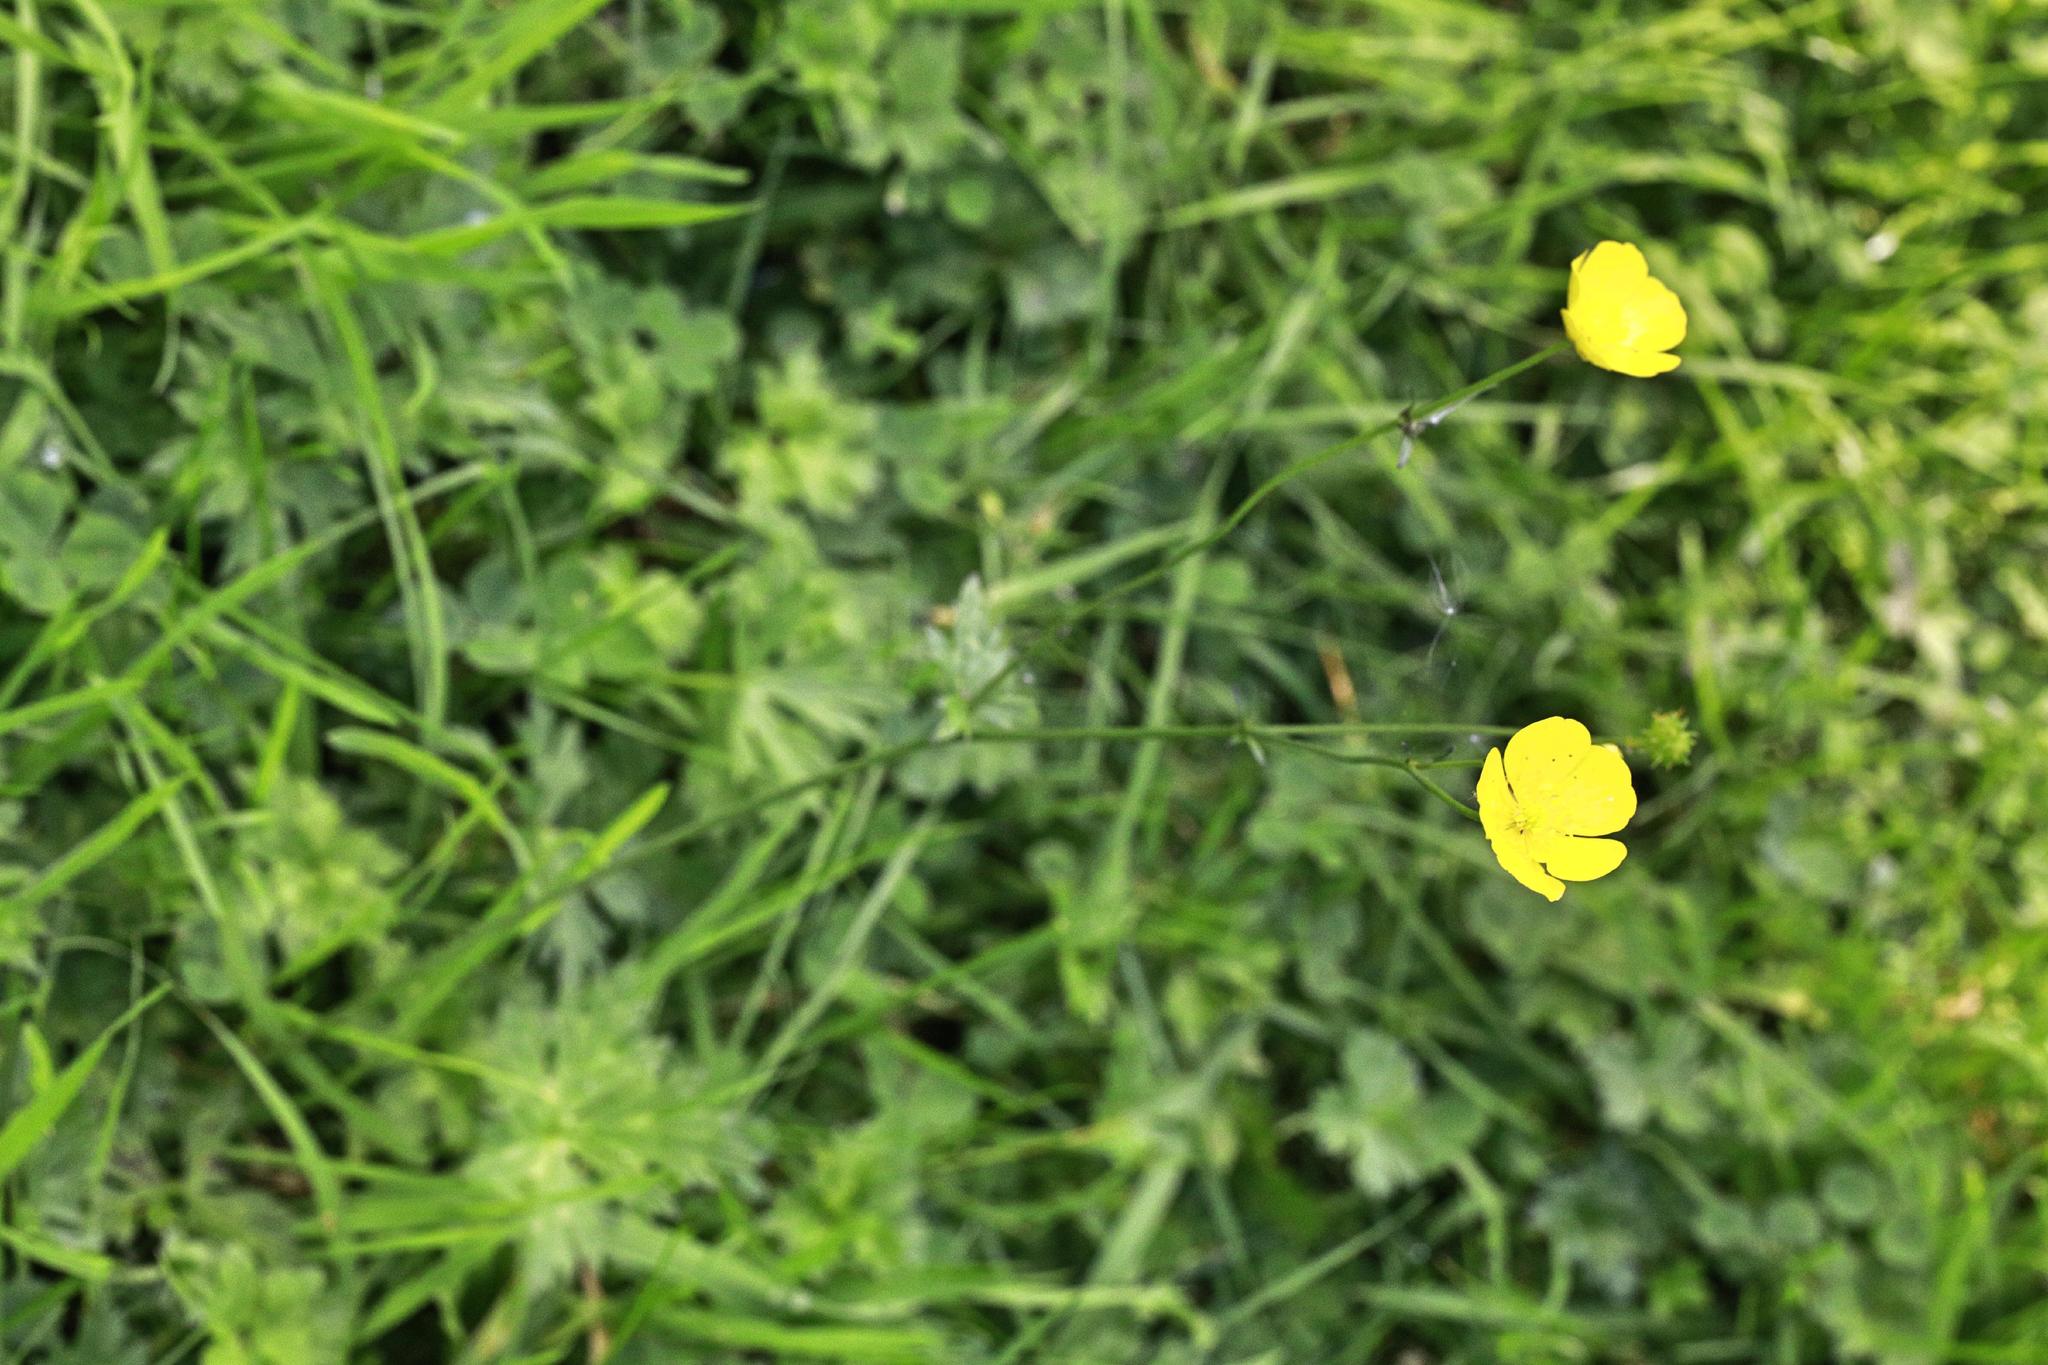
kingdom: Plantae
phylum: Tracheophyta
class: Magnoliopsida
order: Ranunculales
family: Ranunculaceae
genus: Ranunculus
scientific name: Ranunculus acris
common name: Meadow buttercup
